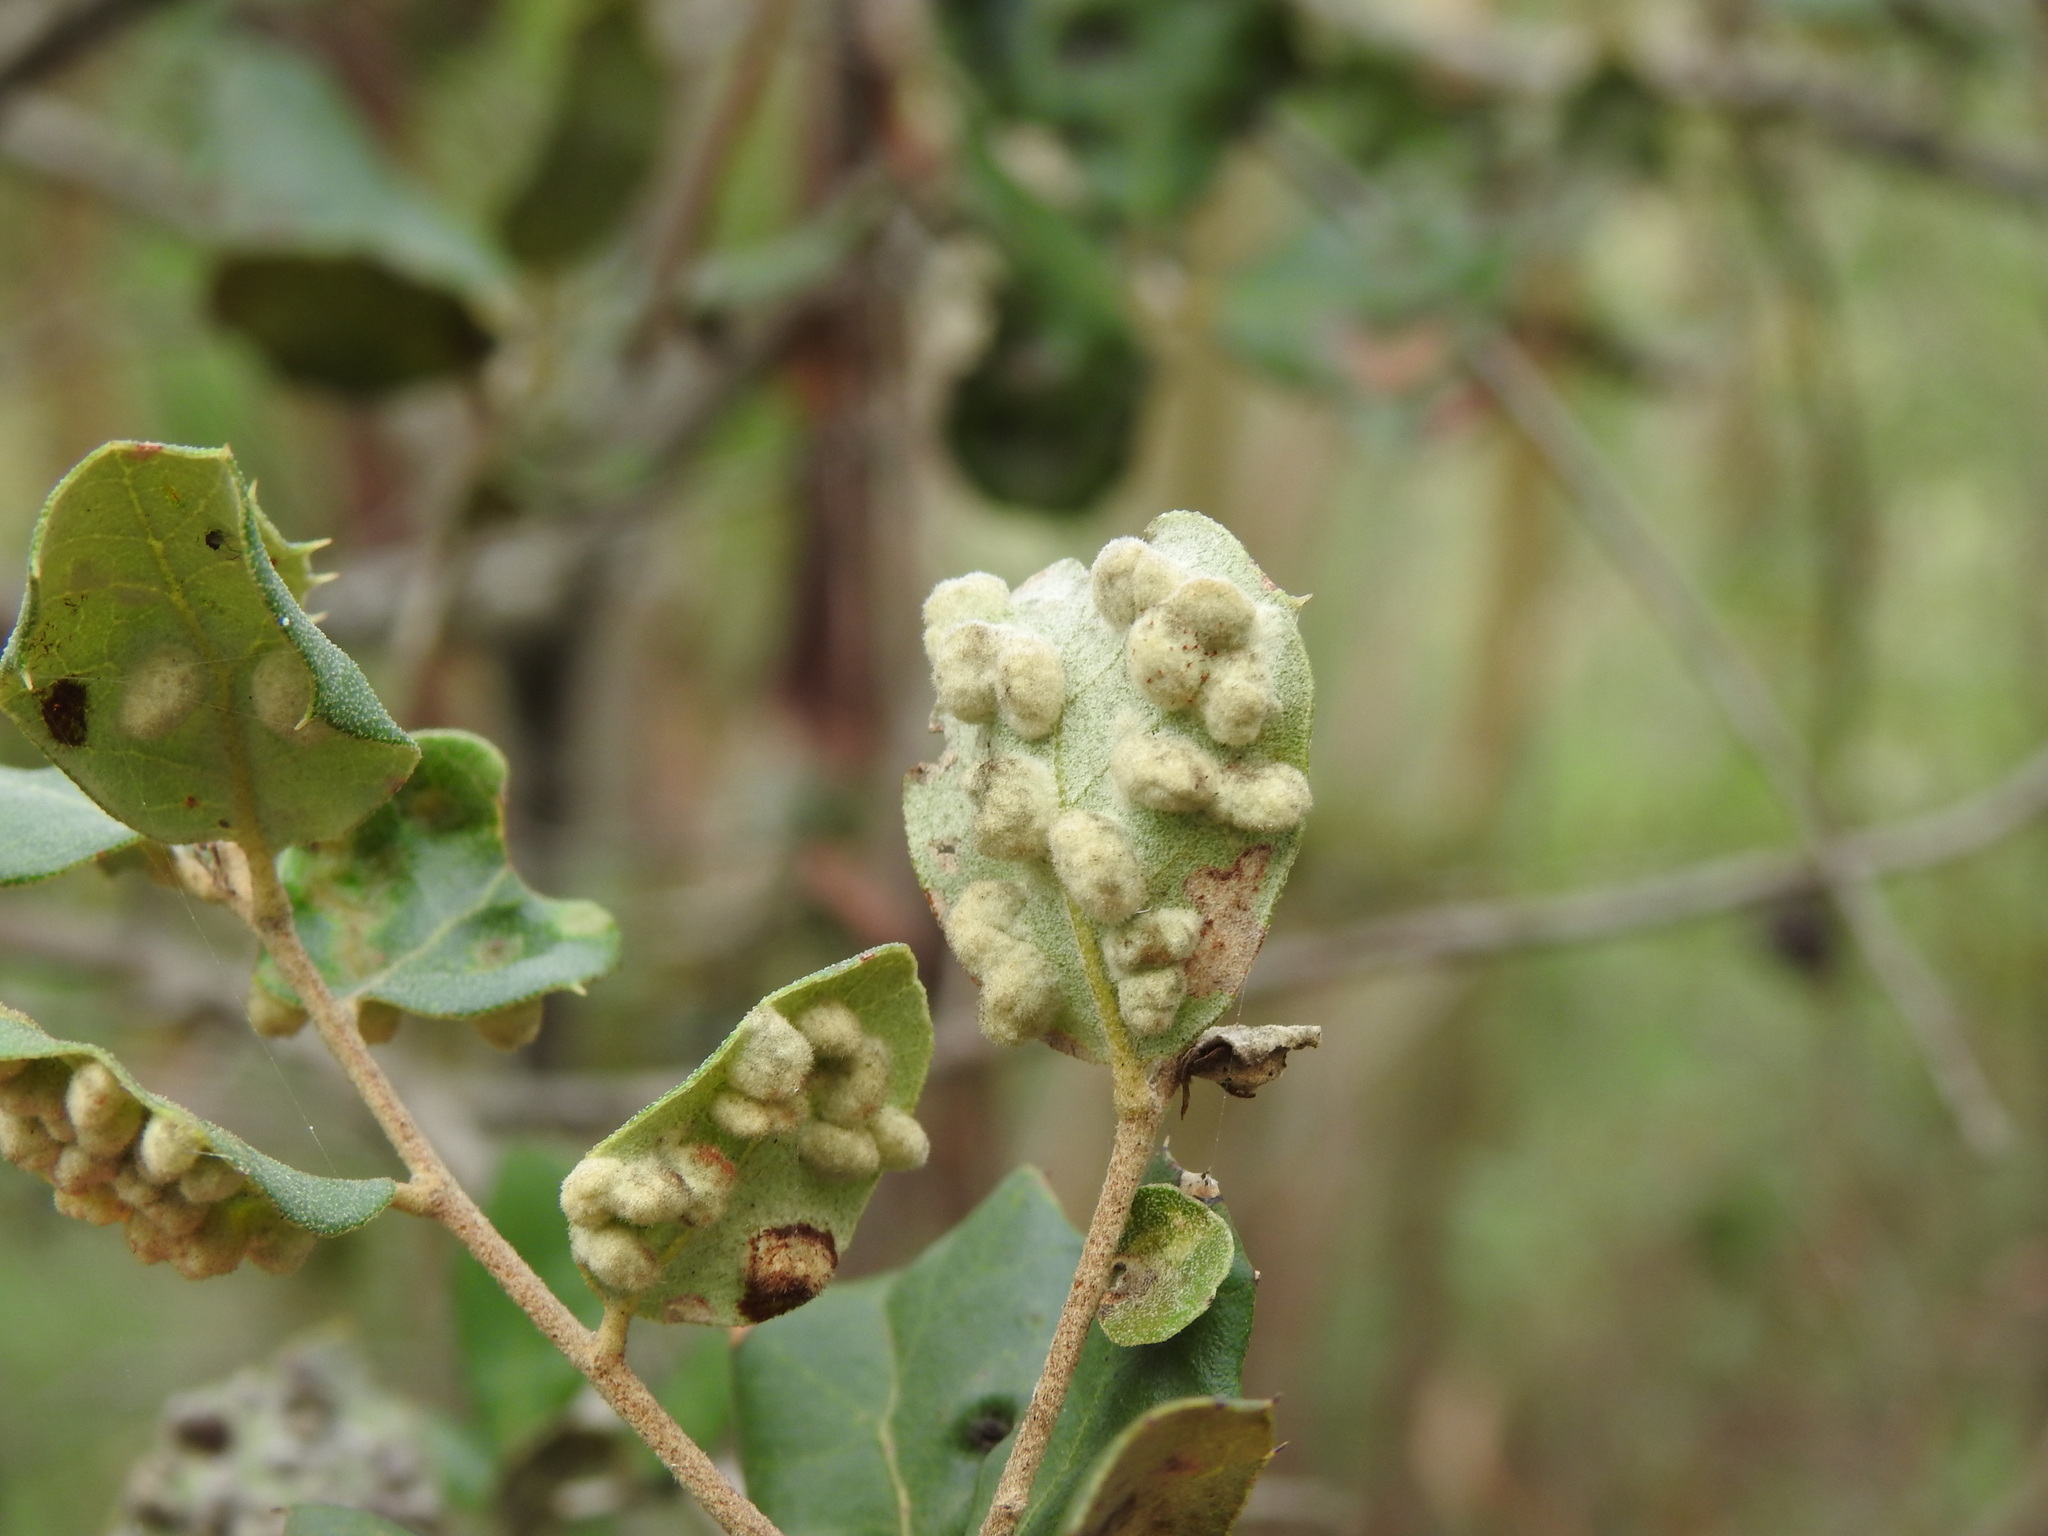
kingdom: Animalia
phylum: Arthropoda
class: Insecta
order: Diptera
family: Cecidomyiidae
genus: Dryomyia
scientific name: Dryomyia lichtensteinii
